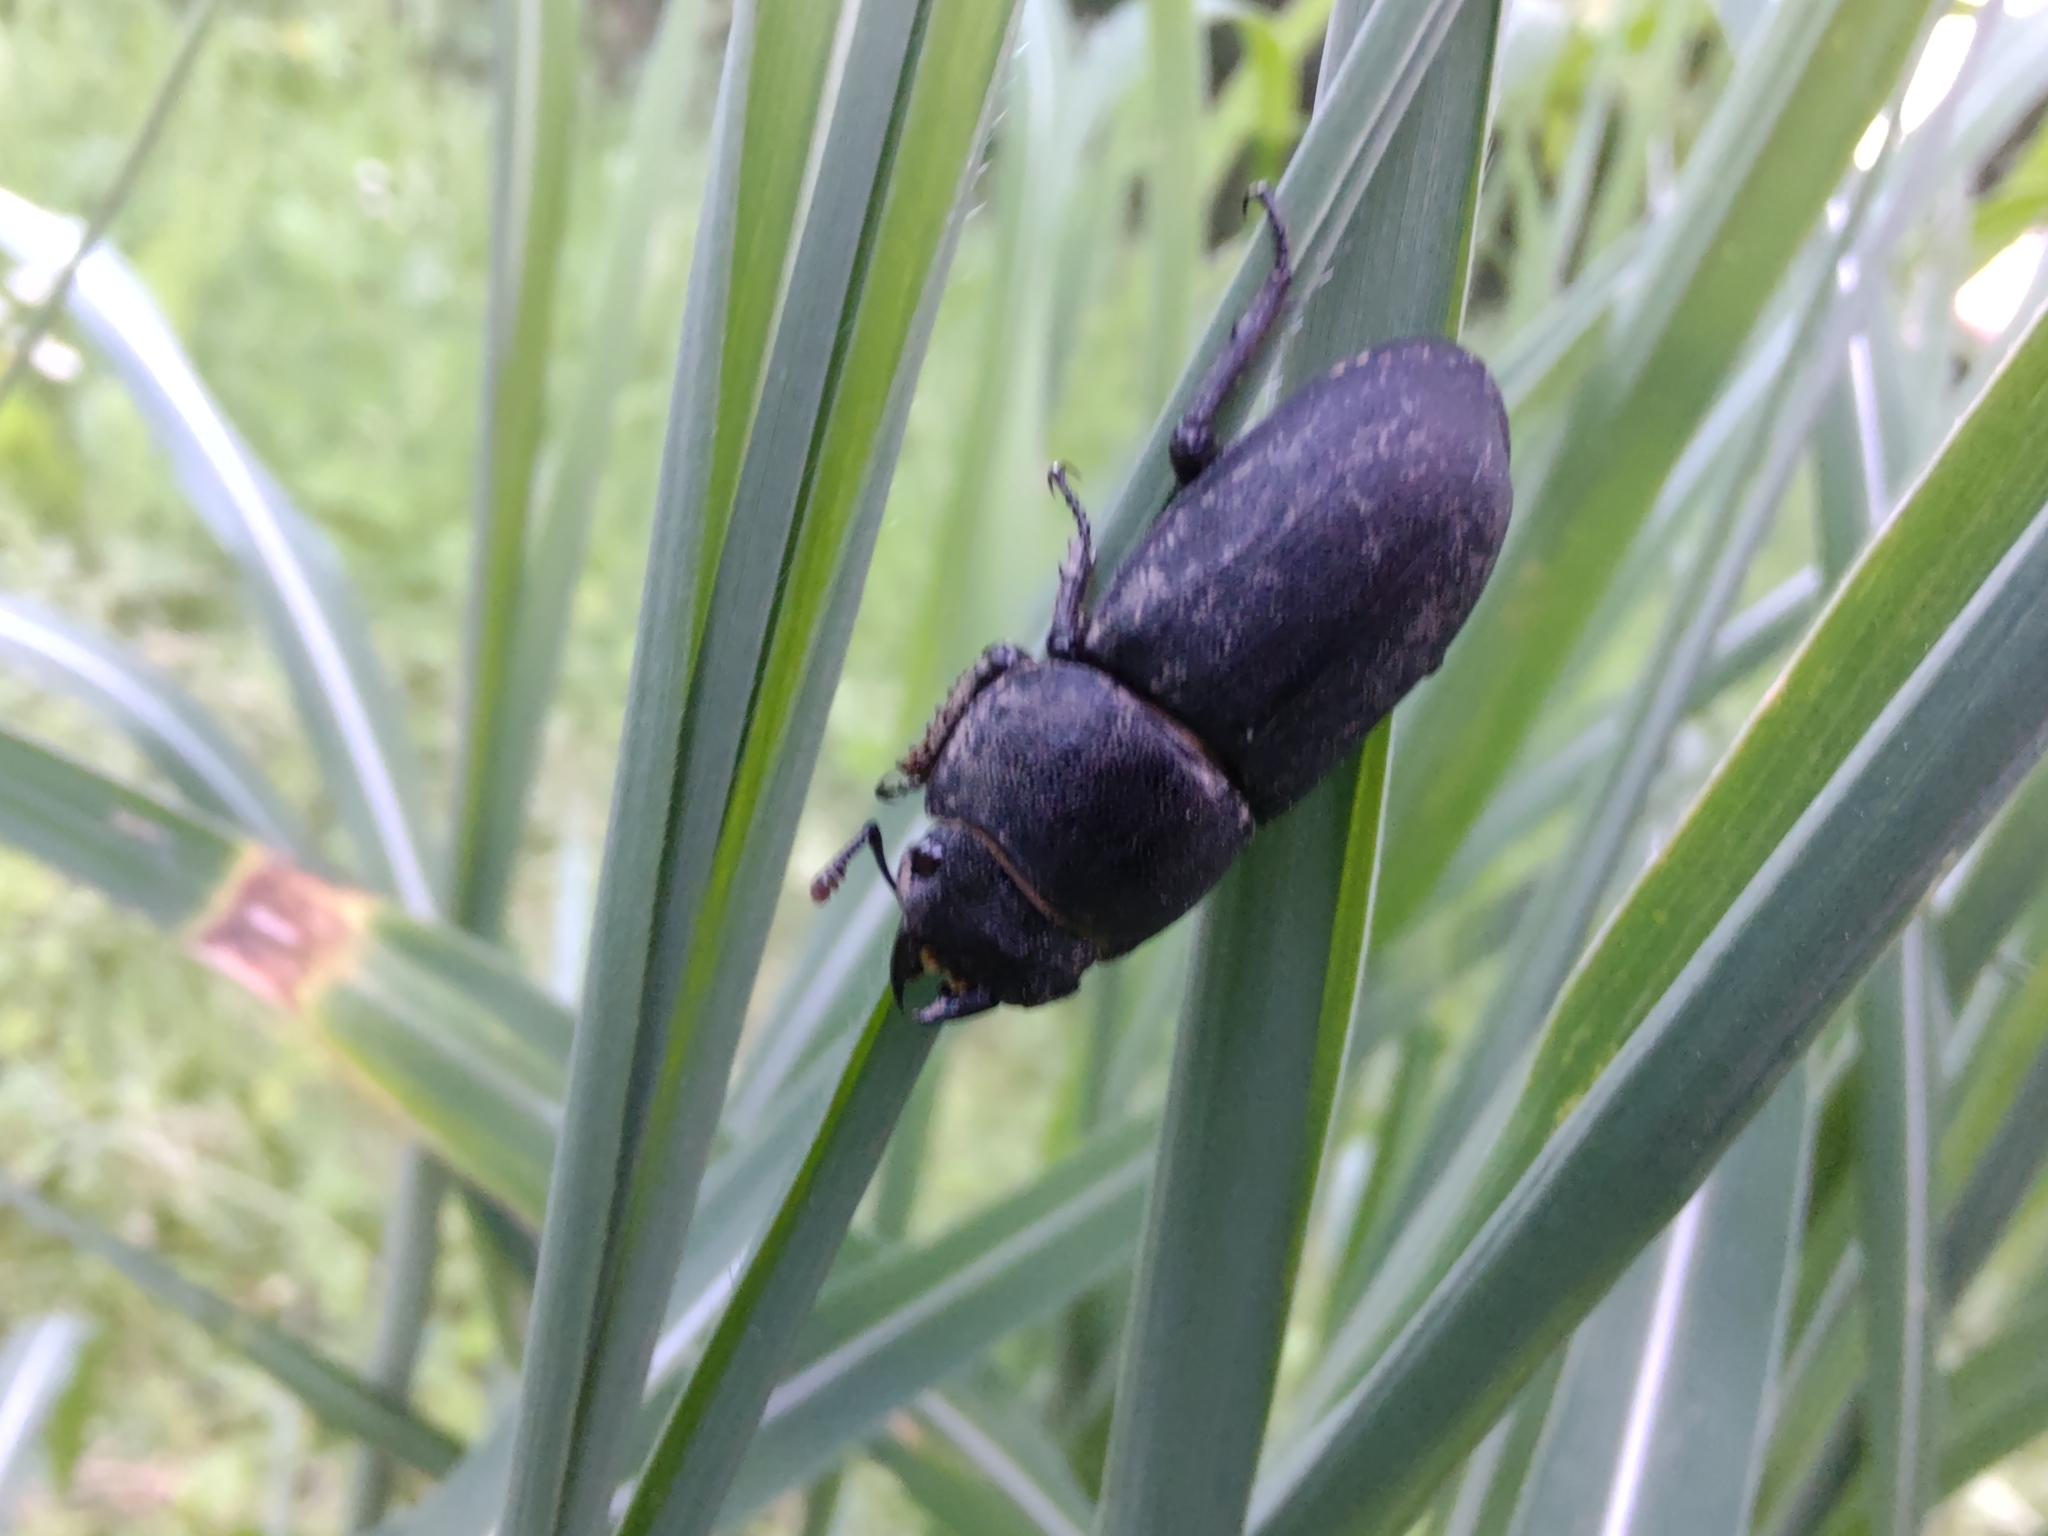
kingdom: Animalia
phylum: Arthropoda
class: Insecta
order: Coleoptera
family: Lucanidae
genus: Dorcus
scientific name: Dorcus parallelipipedus
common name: Lesser stag beetle
